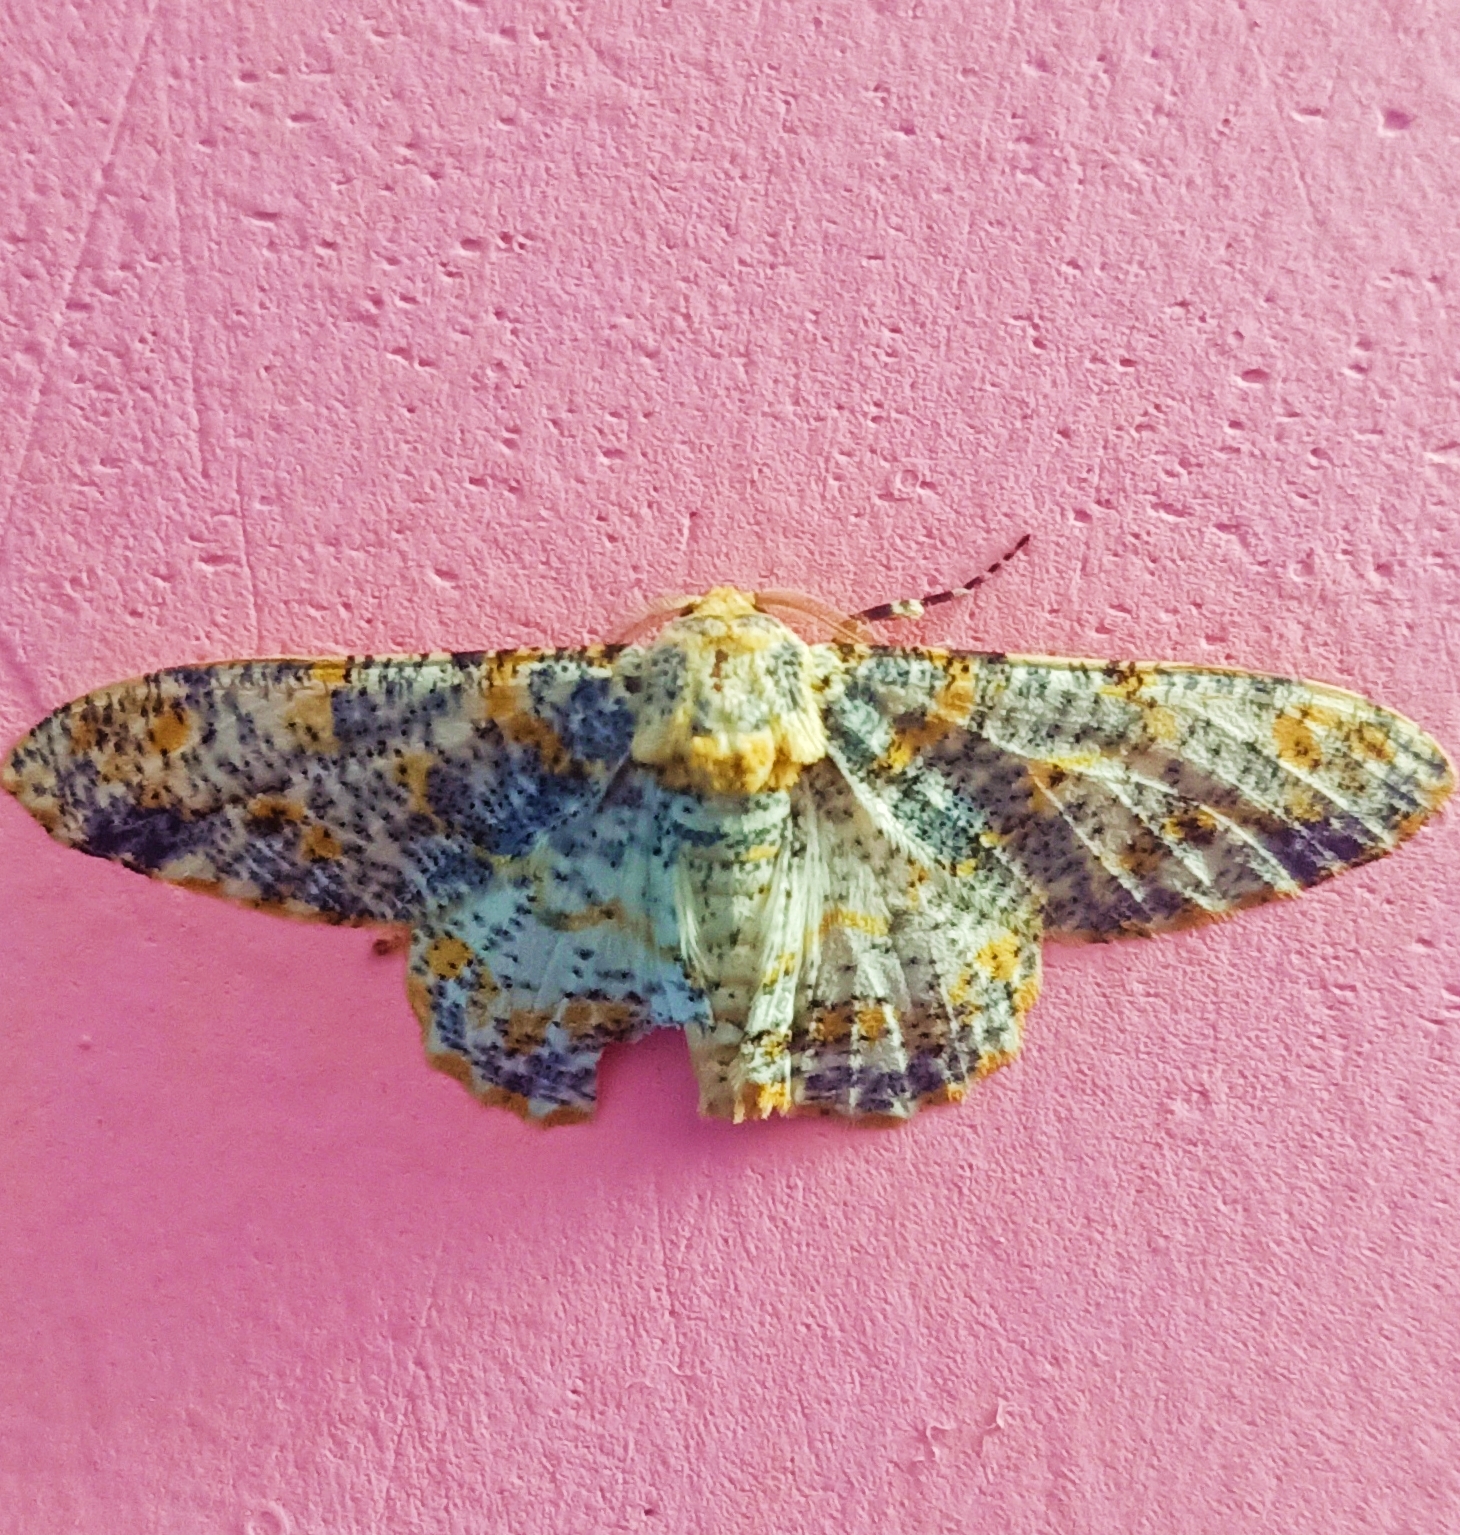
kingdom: Animalia
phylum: Arthropoda
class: Insecta
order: Lepidoptera
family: Geometridae
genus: Biston
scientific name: Biston suppressaria
